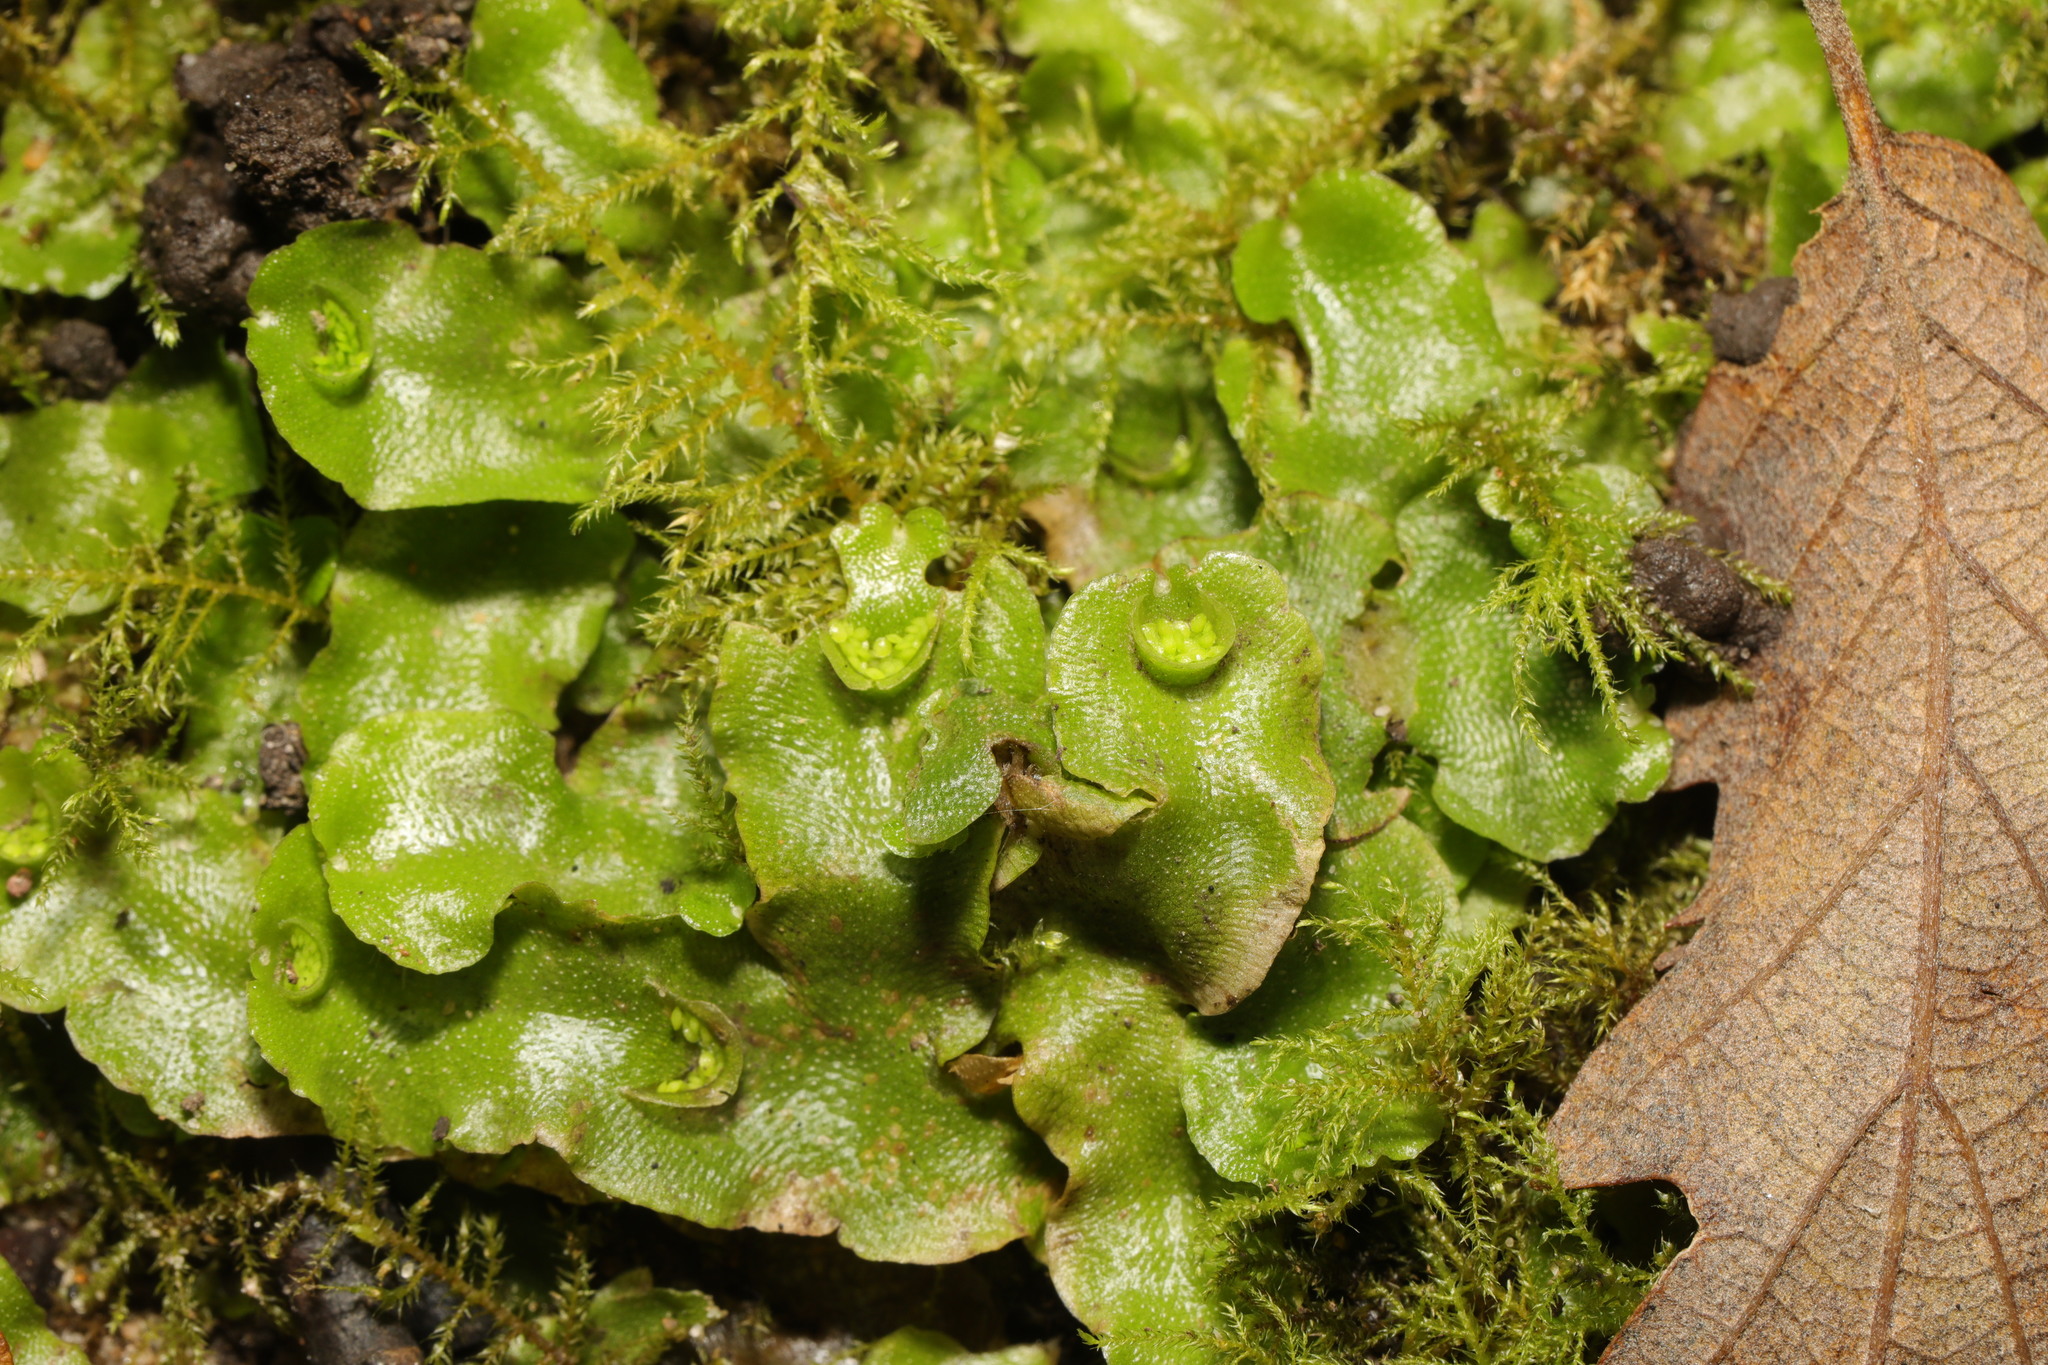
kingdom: Plantae
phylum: Marchantiophyta
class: Marchantiopsida
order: Lunulariales
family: Lunulariaceae
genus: Lunularia
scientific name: Lunularia cruciata
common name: Crescent-cup liverwort
